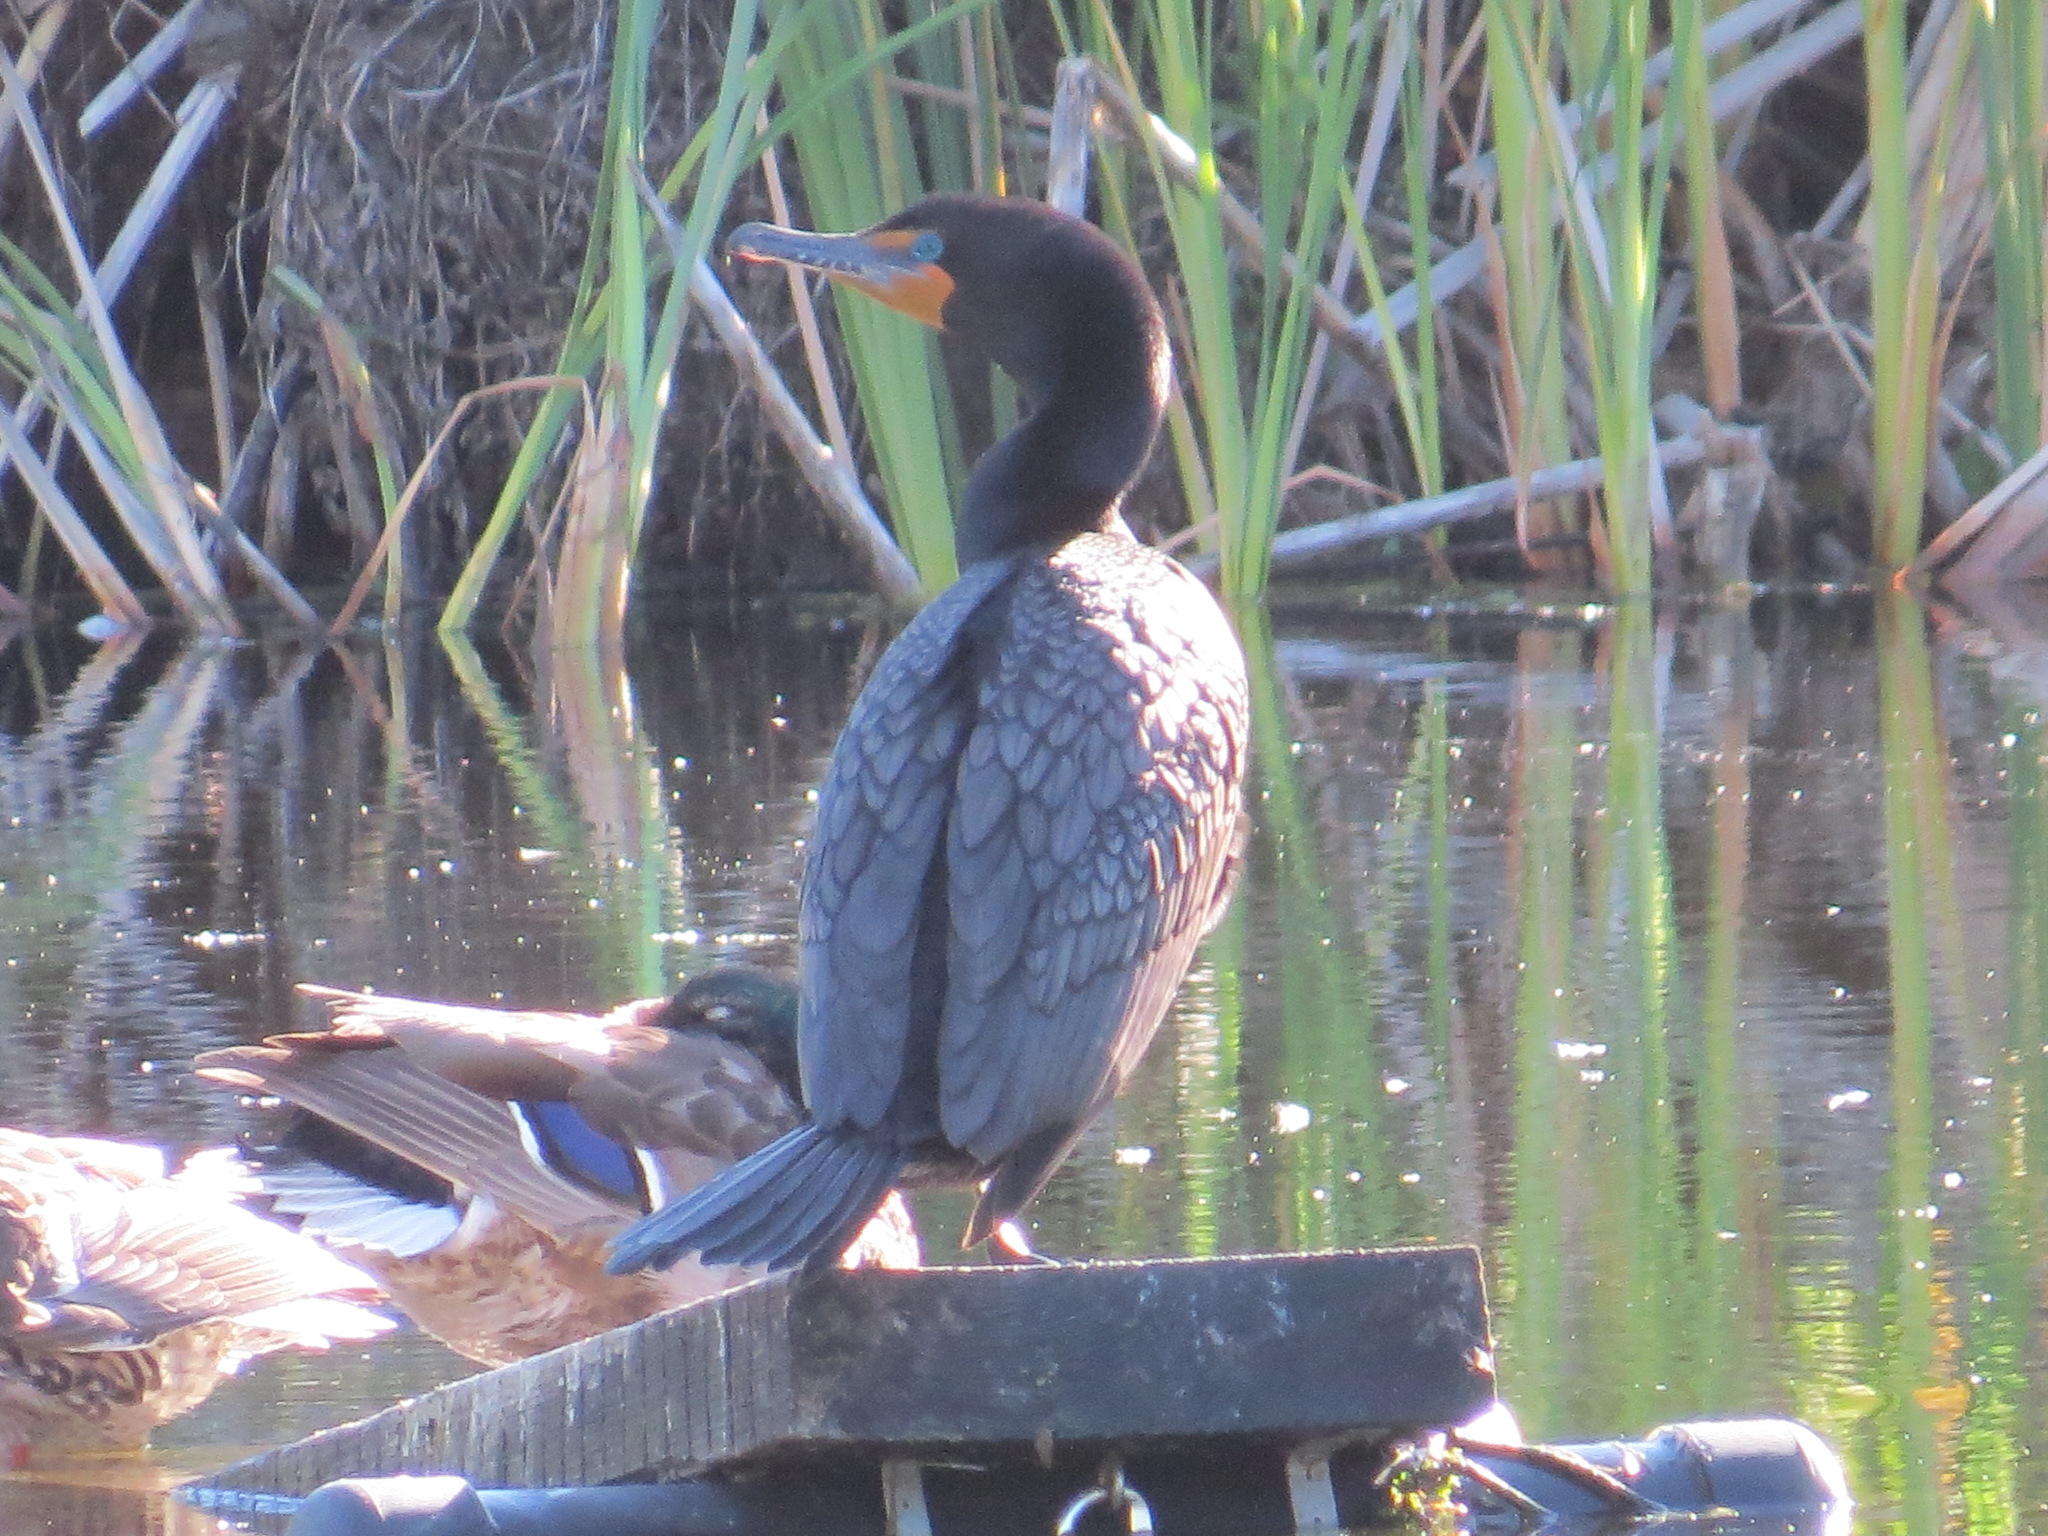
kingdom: Animalia
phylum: Chordata
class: Aves
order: Suliformes
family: Phalacrocoracidae
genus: Phalacrocorax
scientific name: Phalacrocorax auritus
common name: Double-crested cormorant
